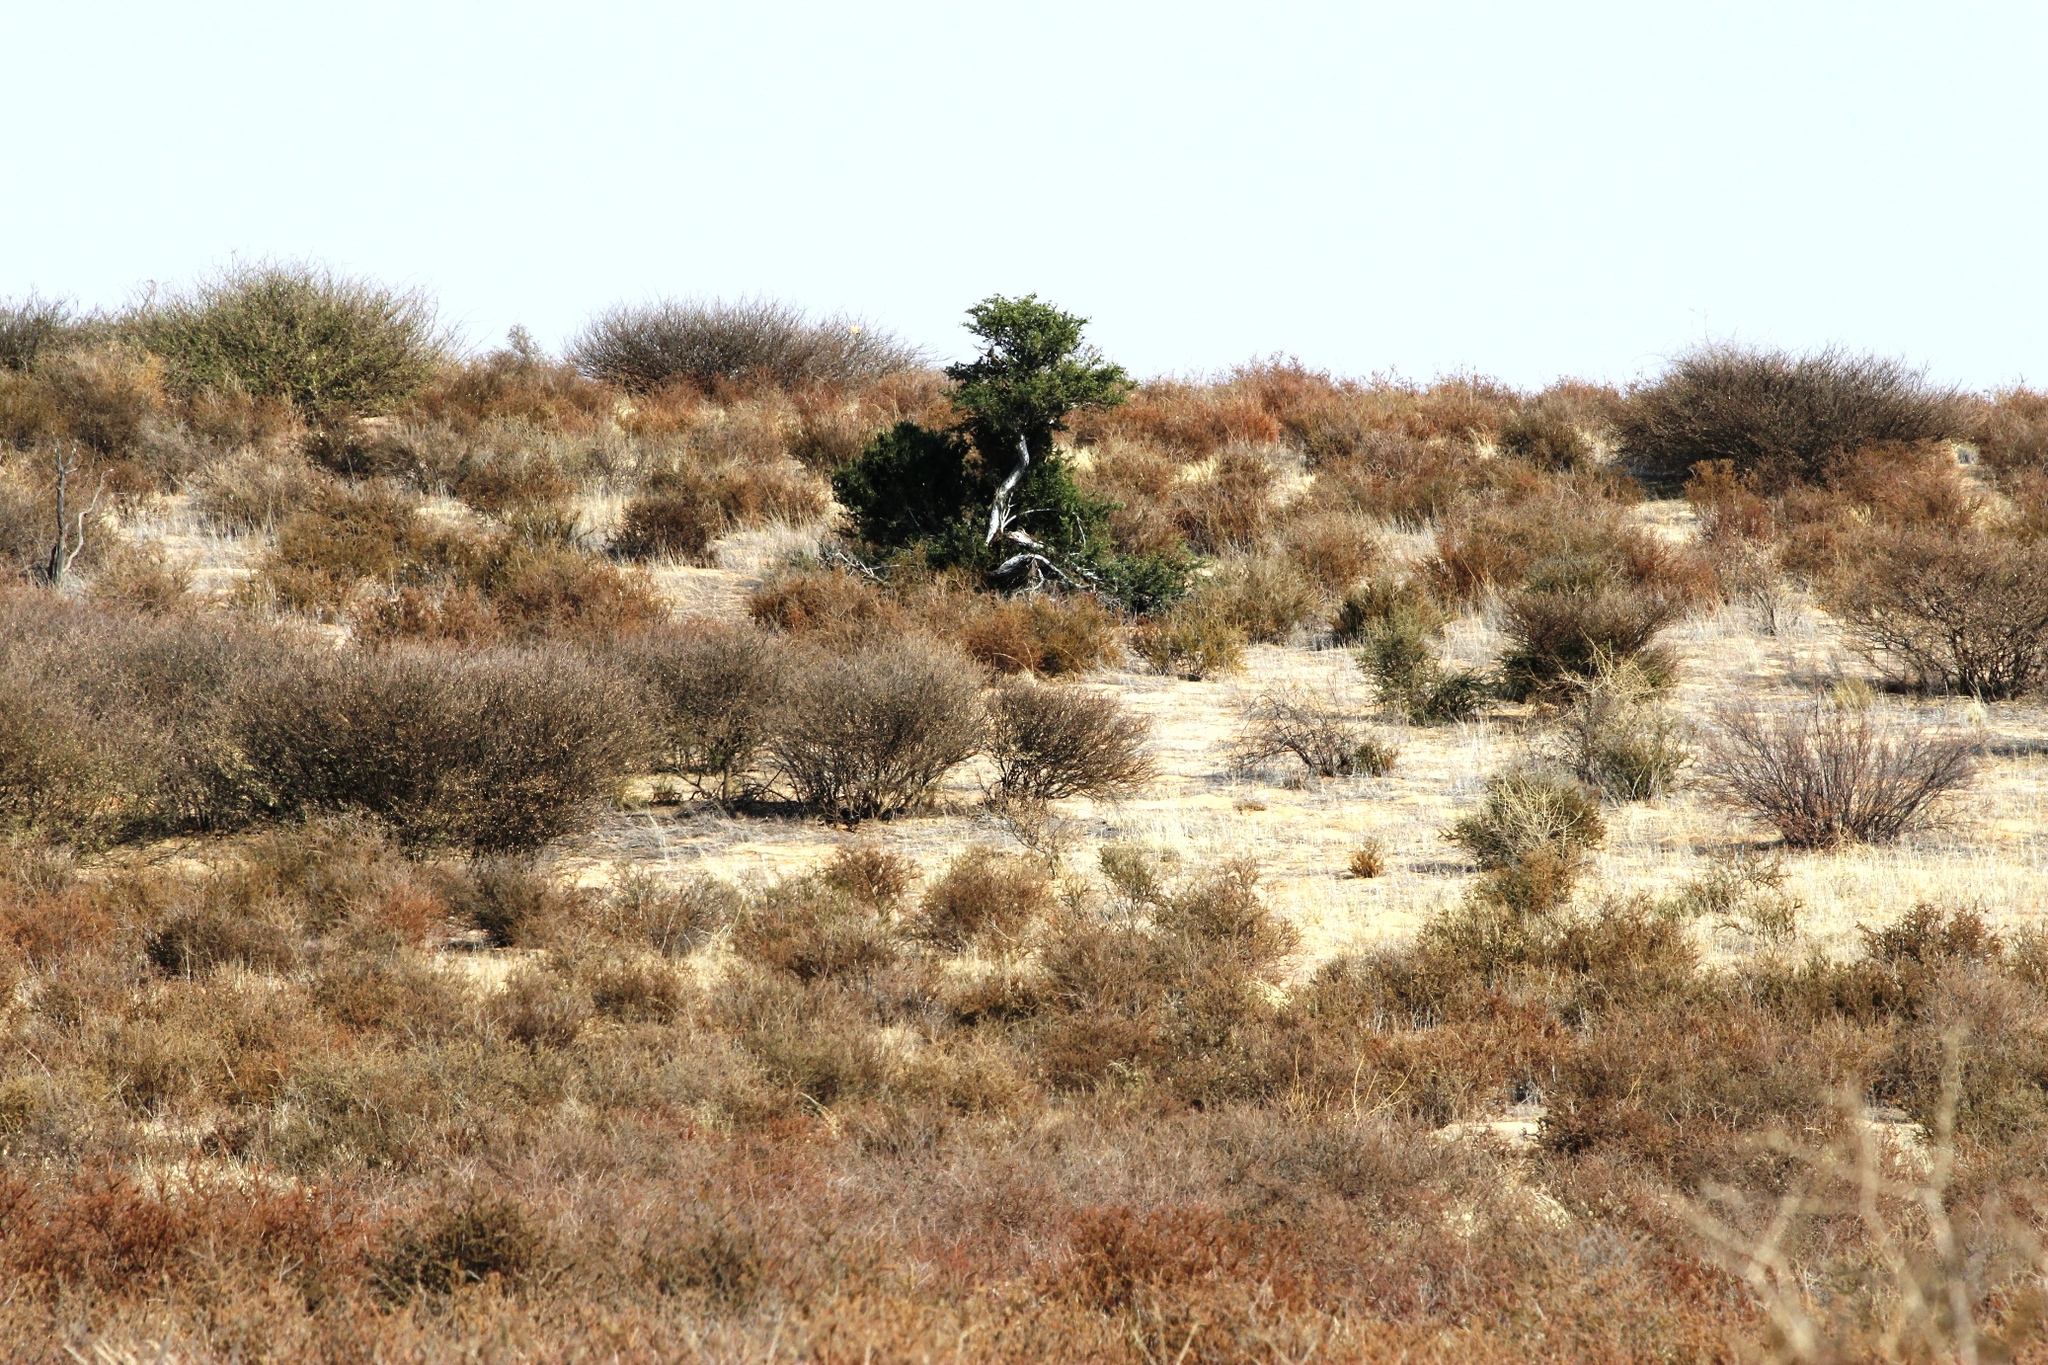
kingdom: Plantae
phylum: Tracheophyta
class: Magnoliopsida
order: Brassicales
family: Capparaceae
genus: Boscia
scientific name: Boscia albitrunca
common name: Caper bush
